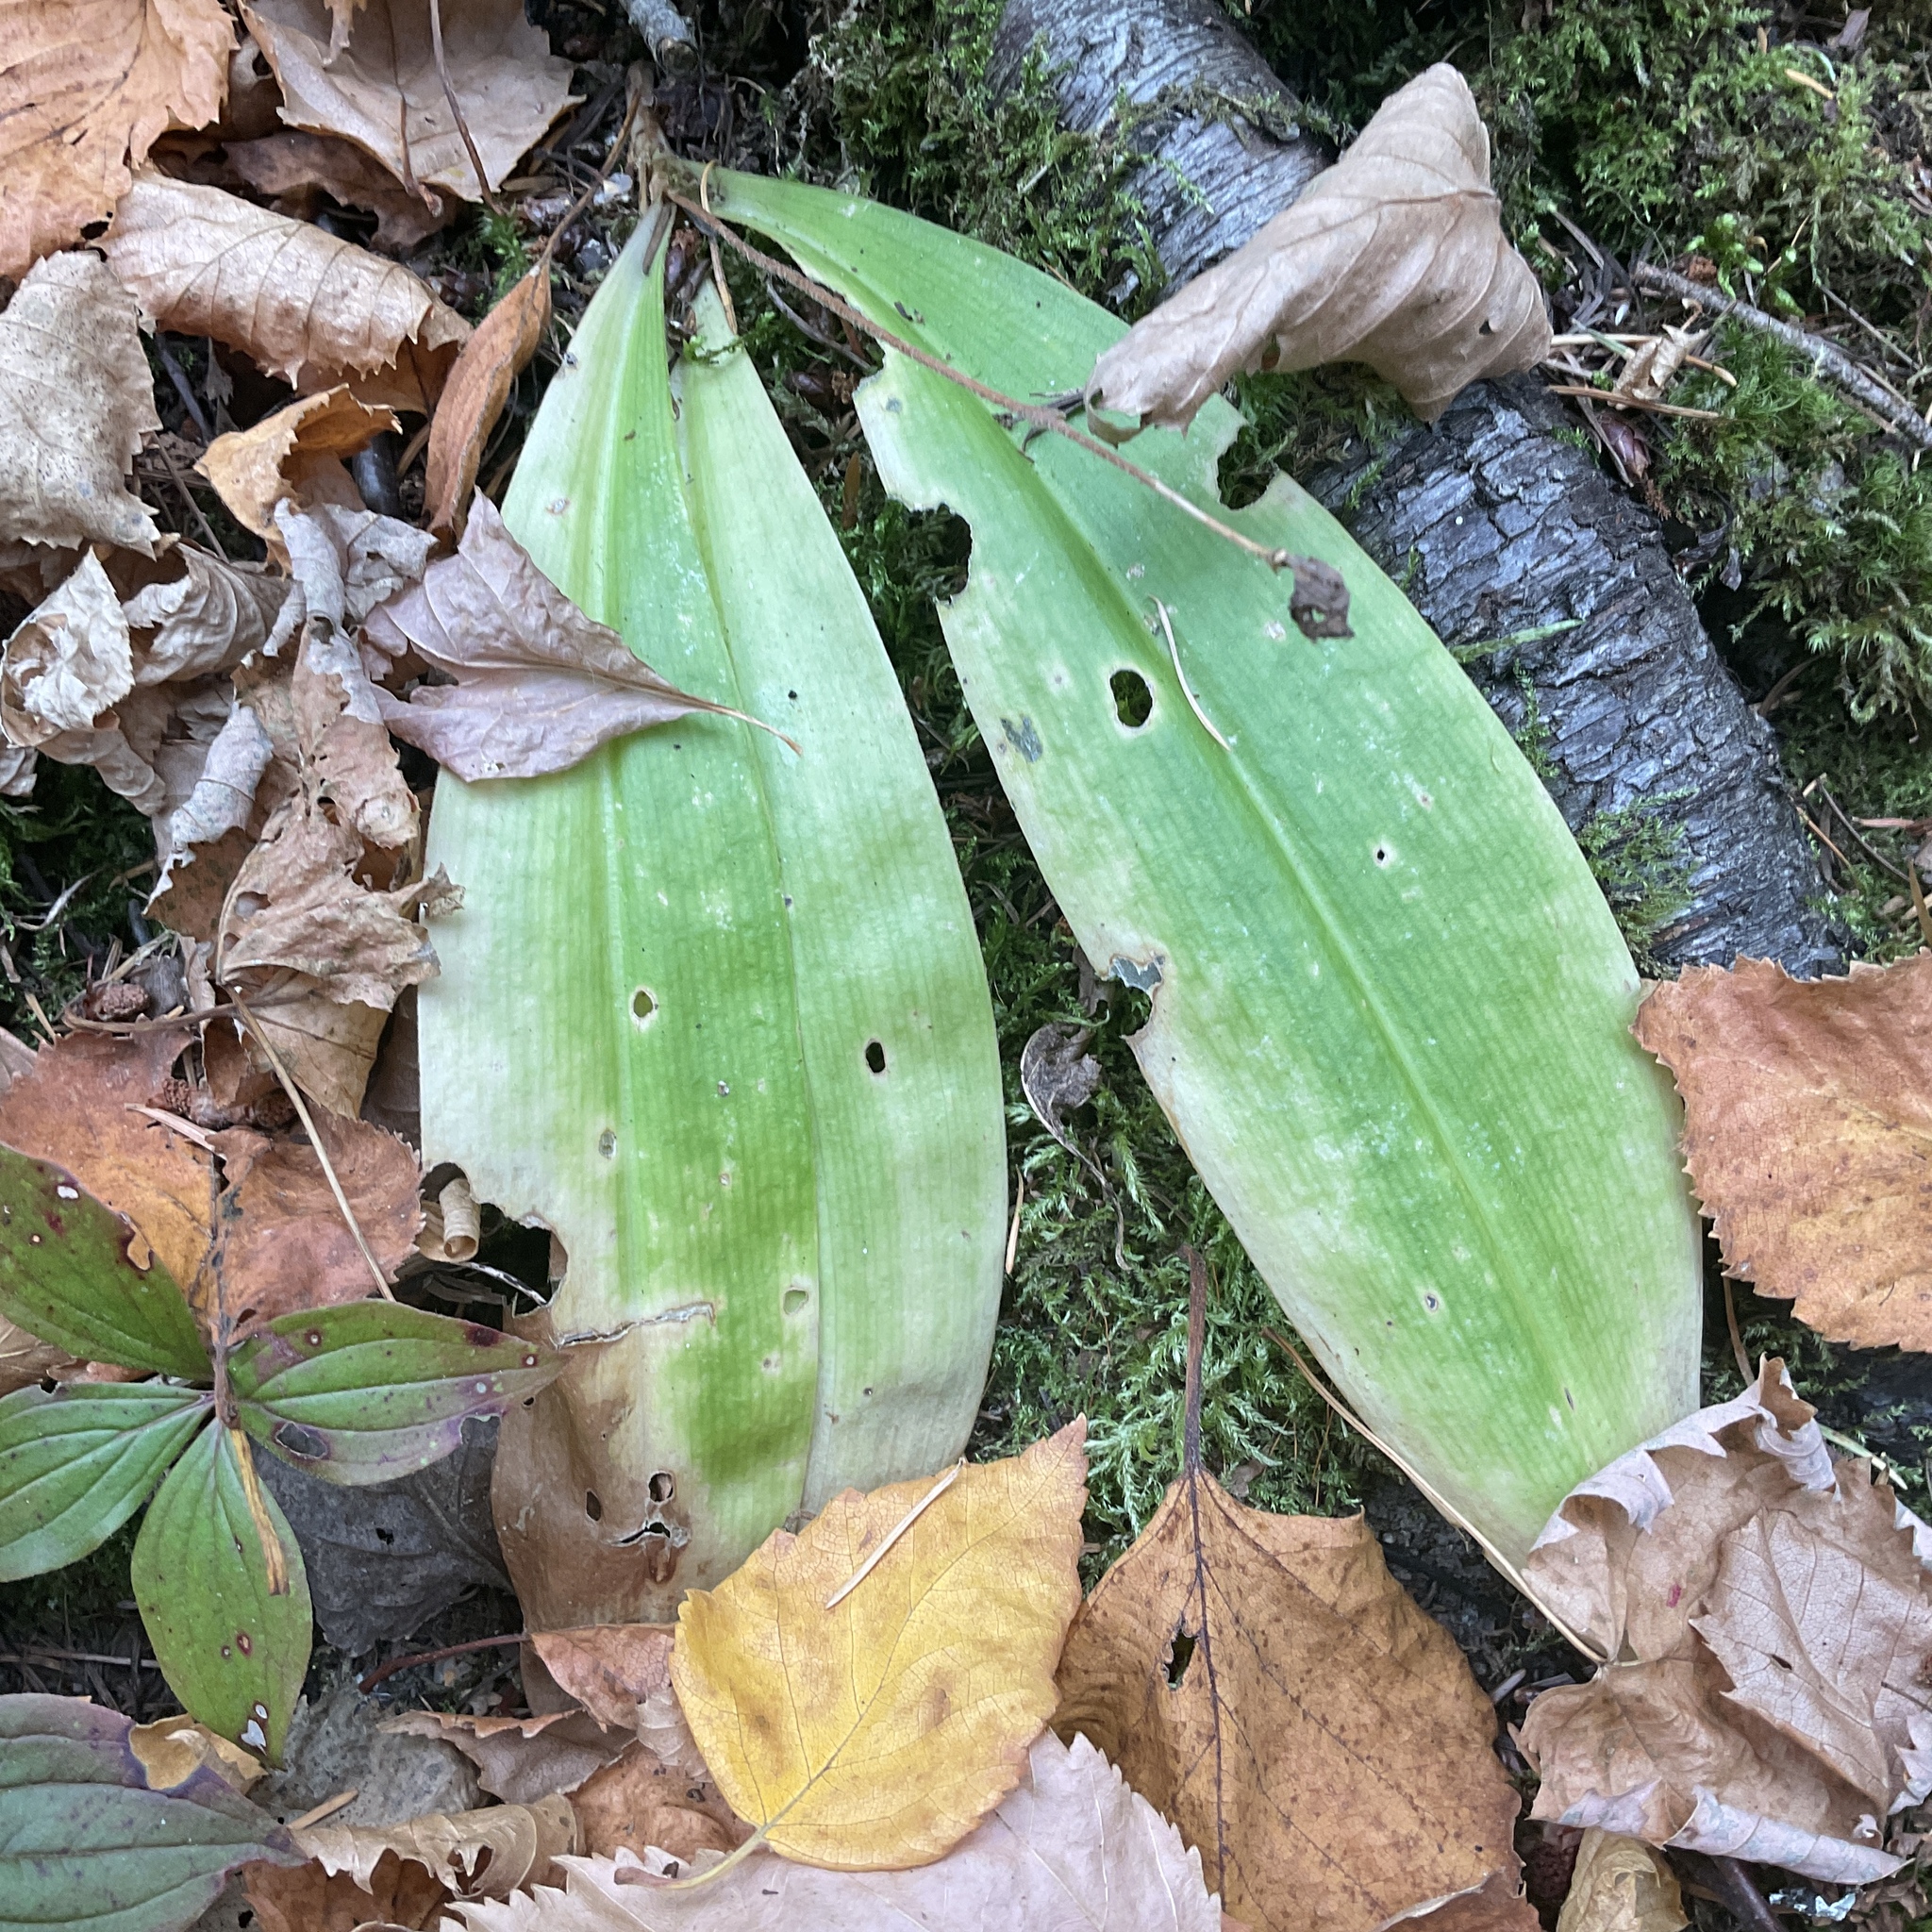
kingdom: Plantae
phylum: Tracheophyta
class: Liliopsida
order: Liliales
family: Liliaceae
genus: Clintonia
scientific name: Clintonia uniflora
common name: Queen's cup
